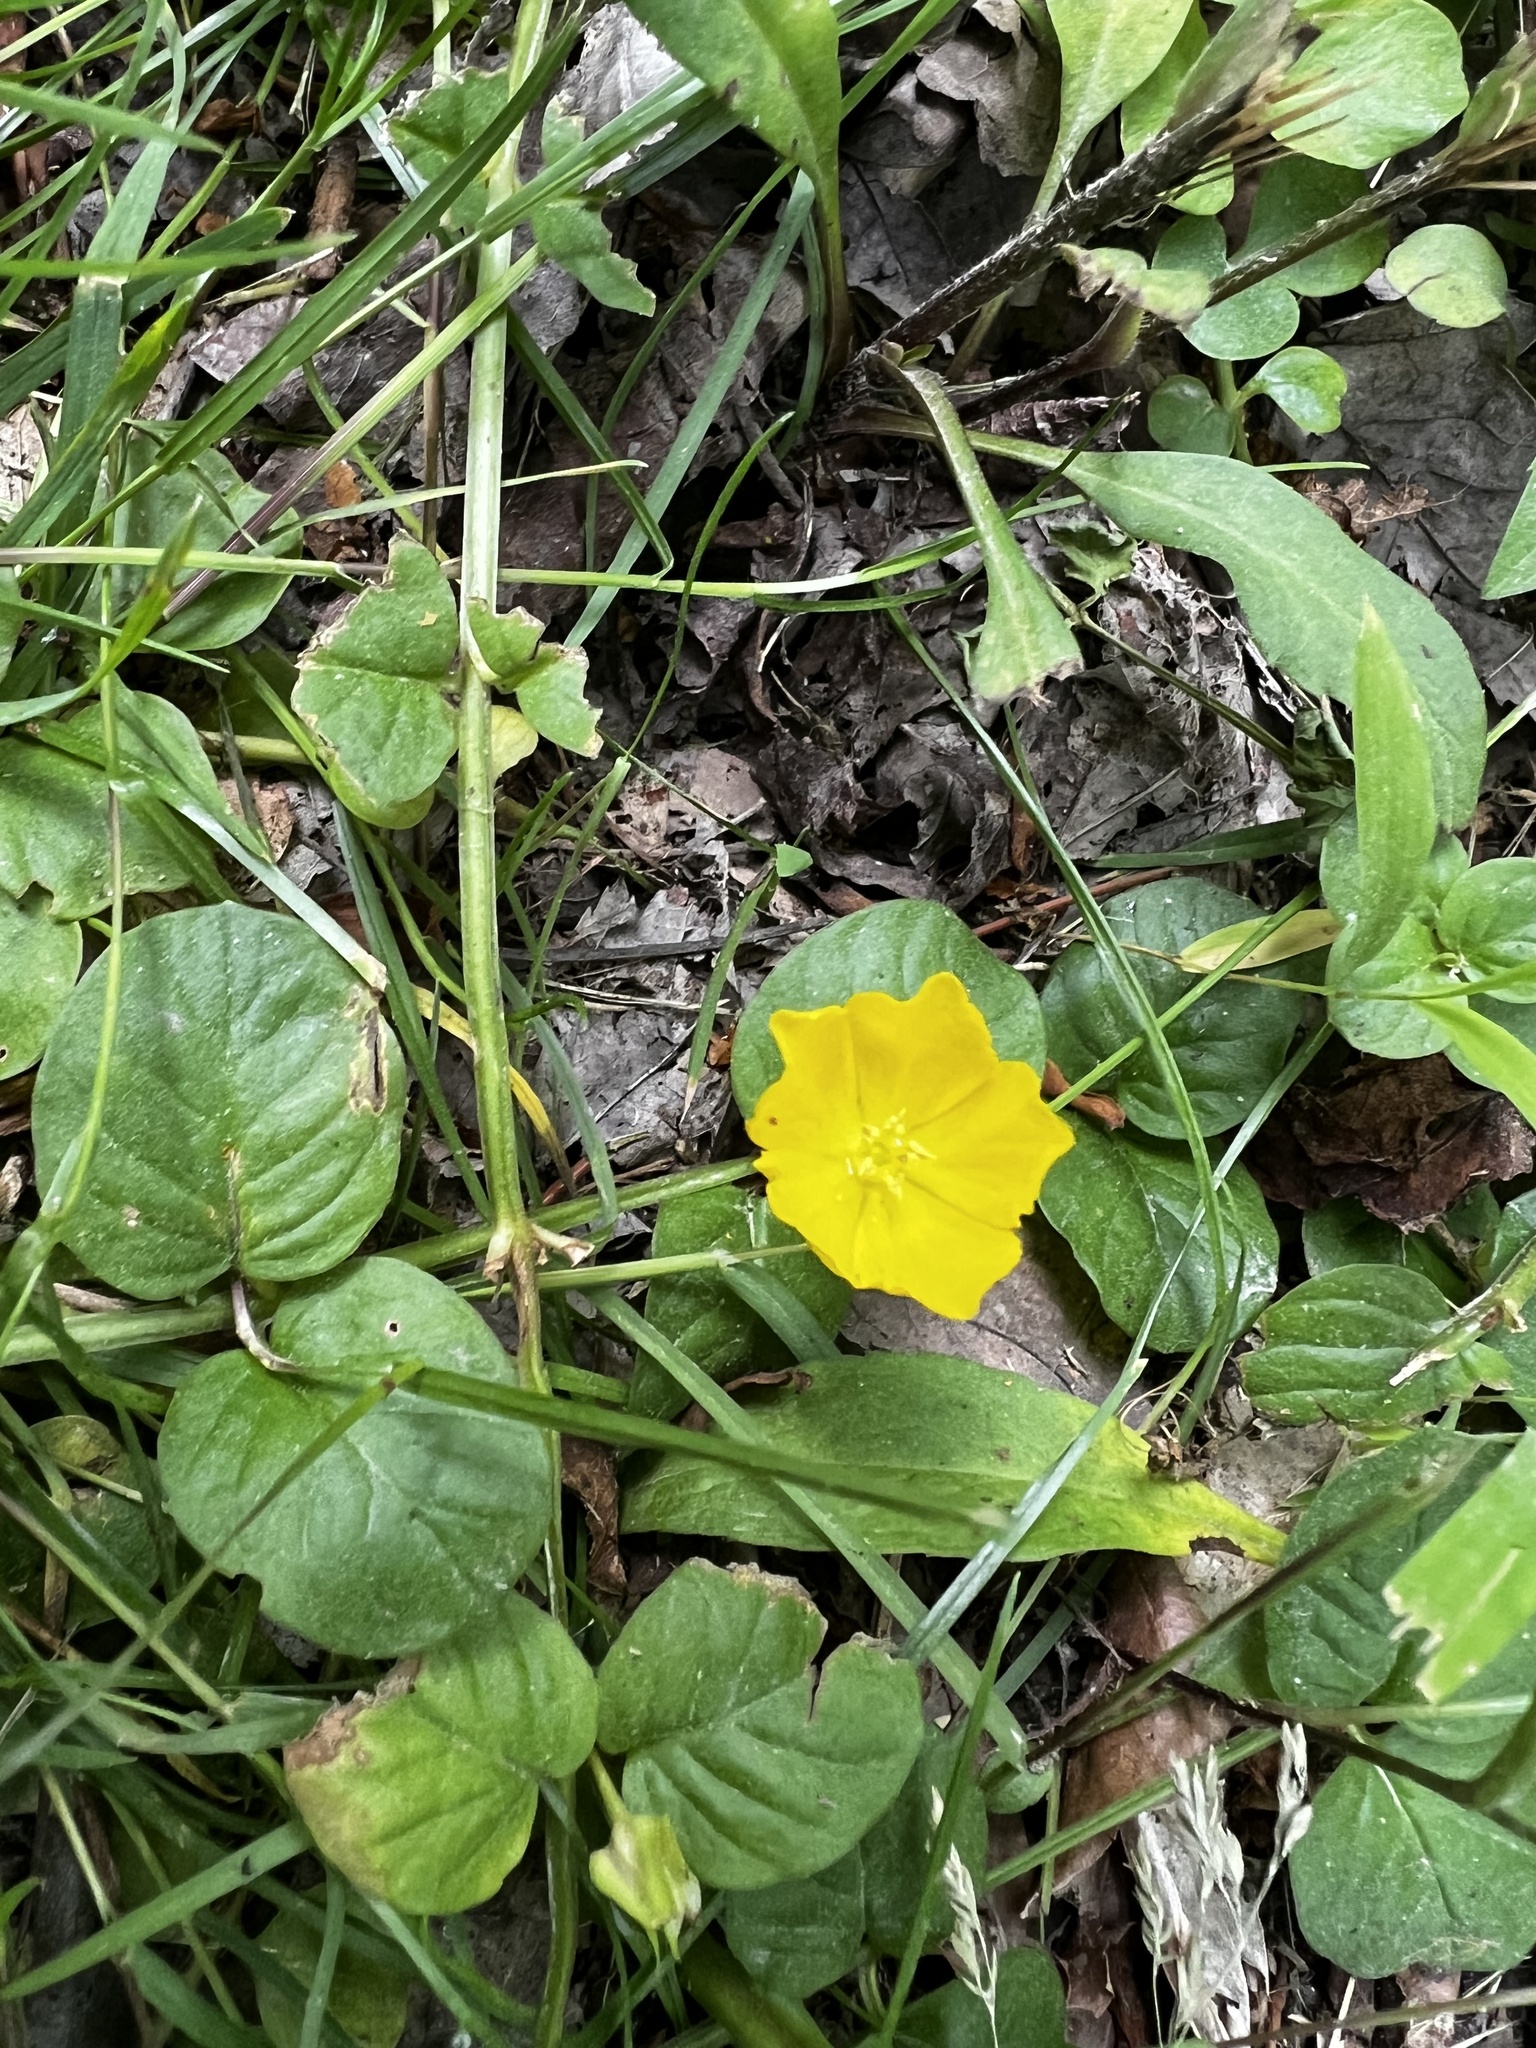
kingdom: Plantae
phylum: Tracheophyta
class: Magnoliopsida
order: Ericales
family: Primulaceae
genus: Lysimachia
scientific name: Lysimachia nummularia
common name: Moneywort
